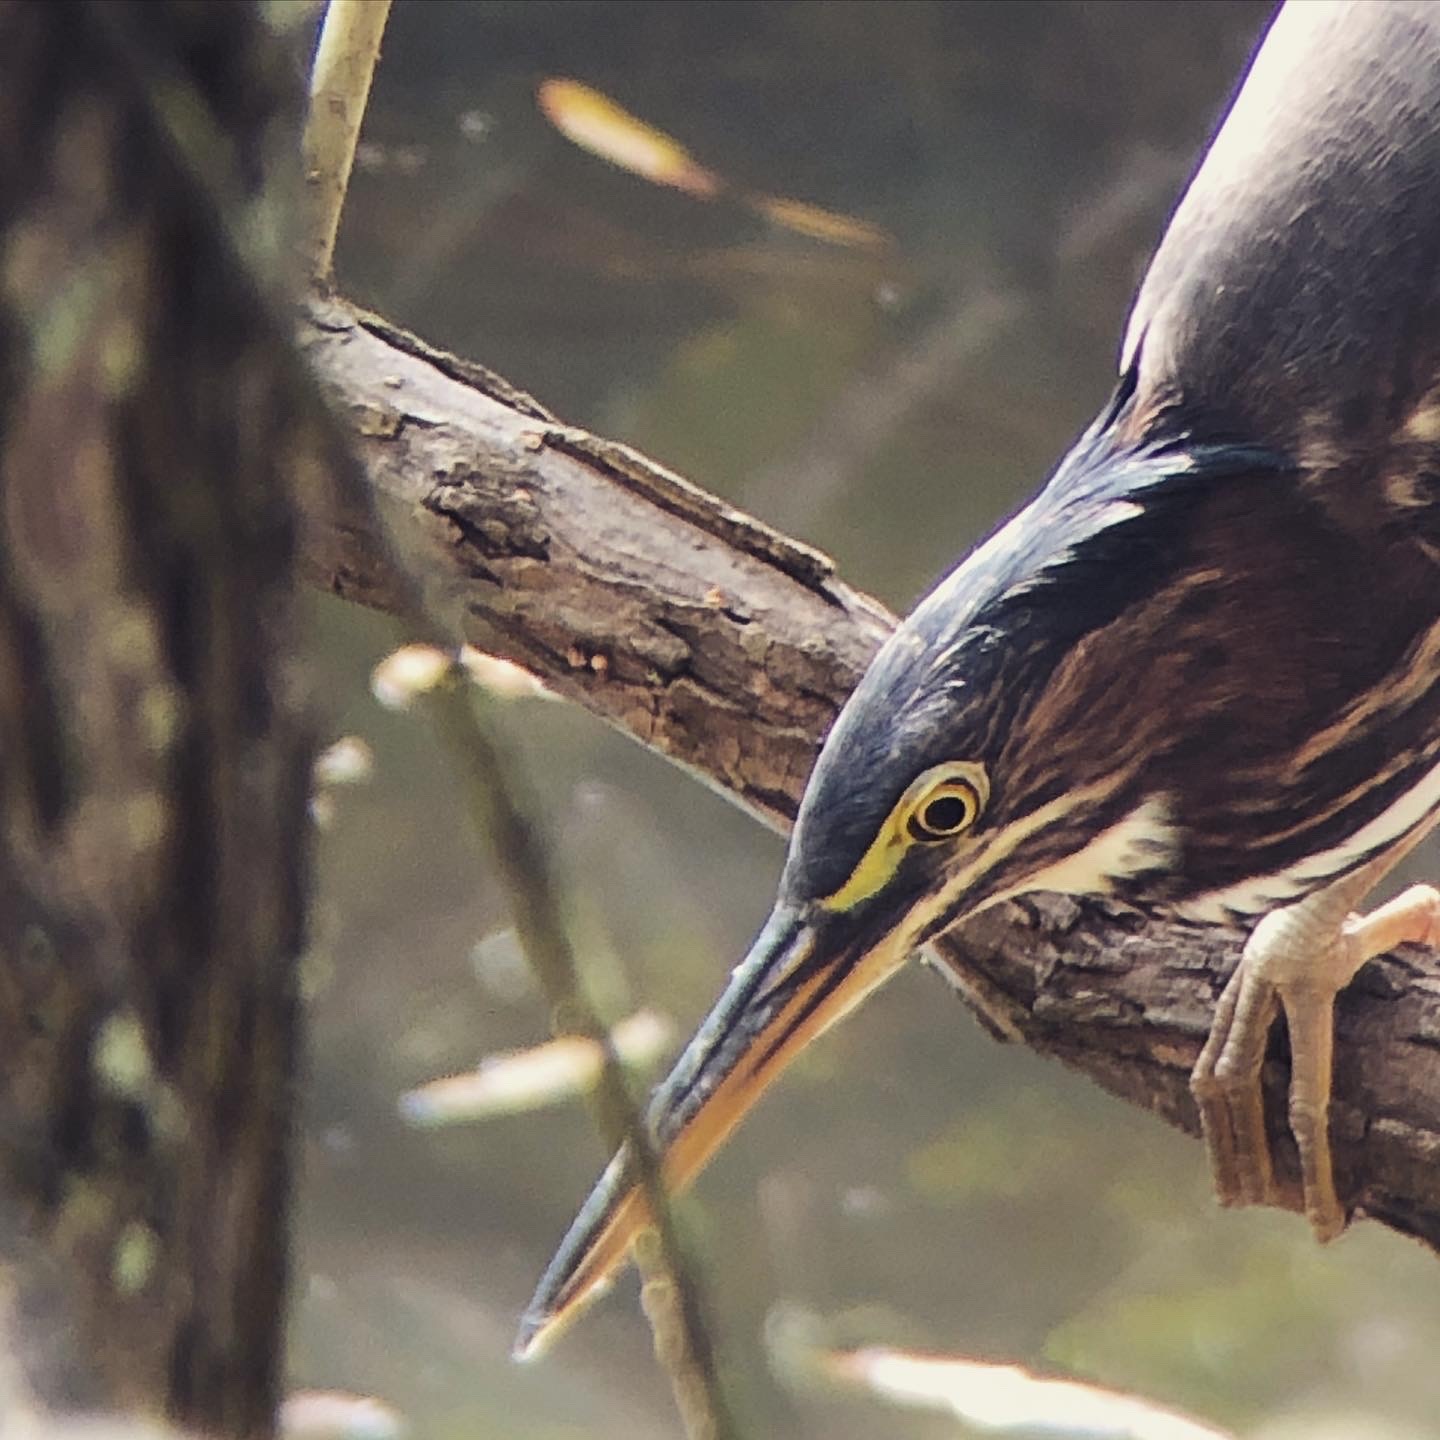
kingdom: Animalia
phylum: Chordata
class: Aves
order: Pelecaniformes
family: Ardeidae
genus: Butorides
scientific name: Butorides virescens
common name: Green heron
